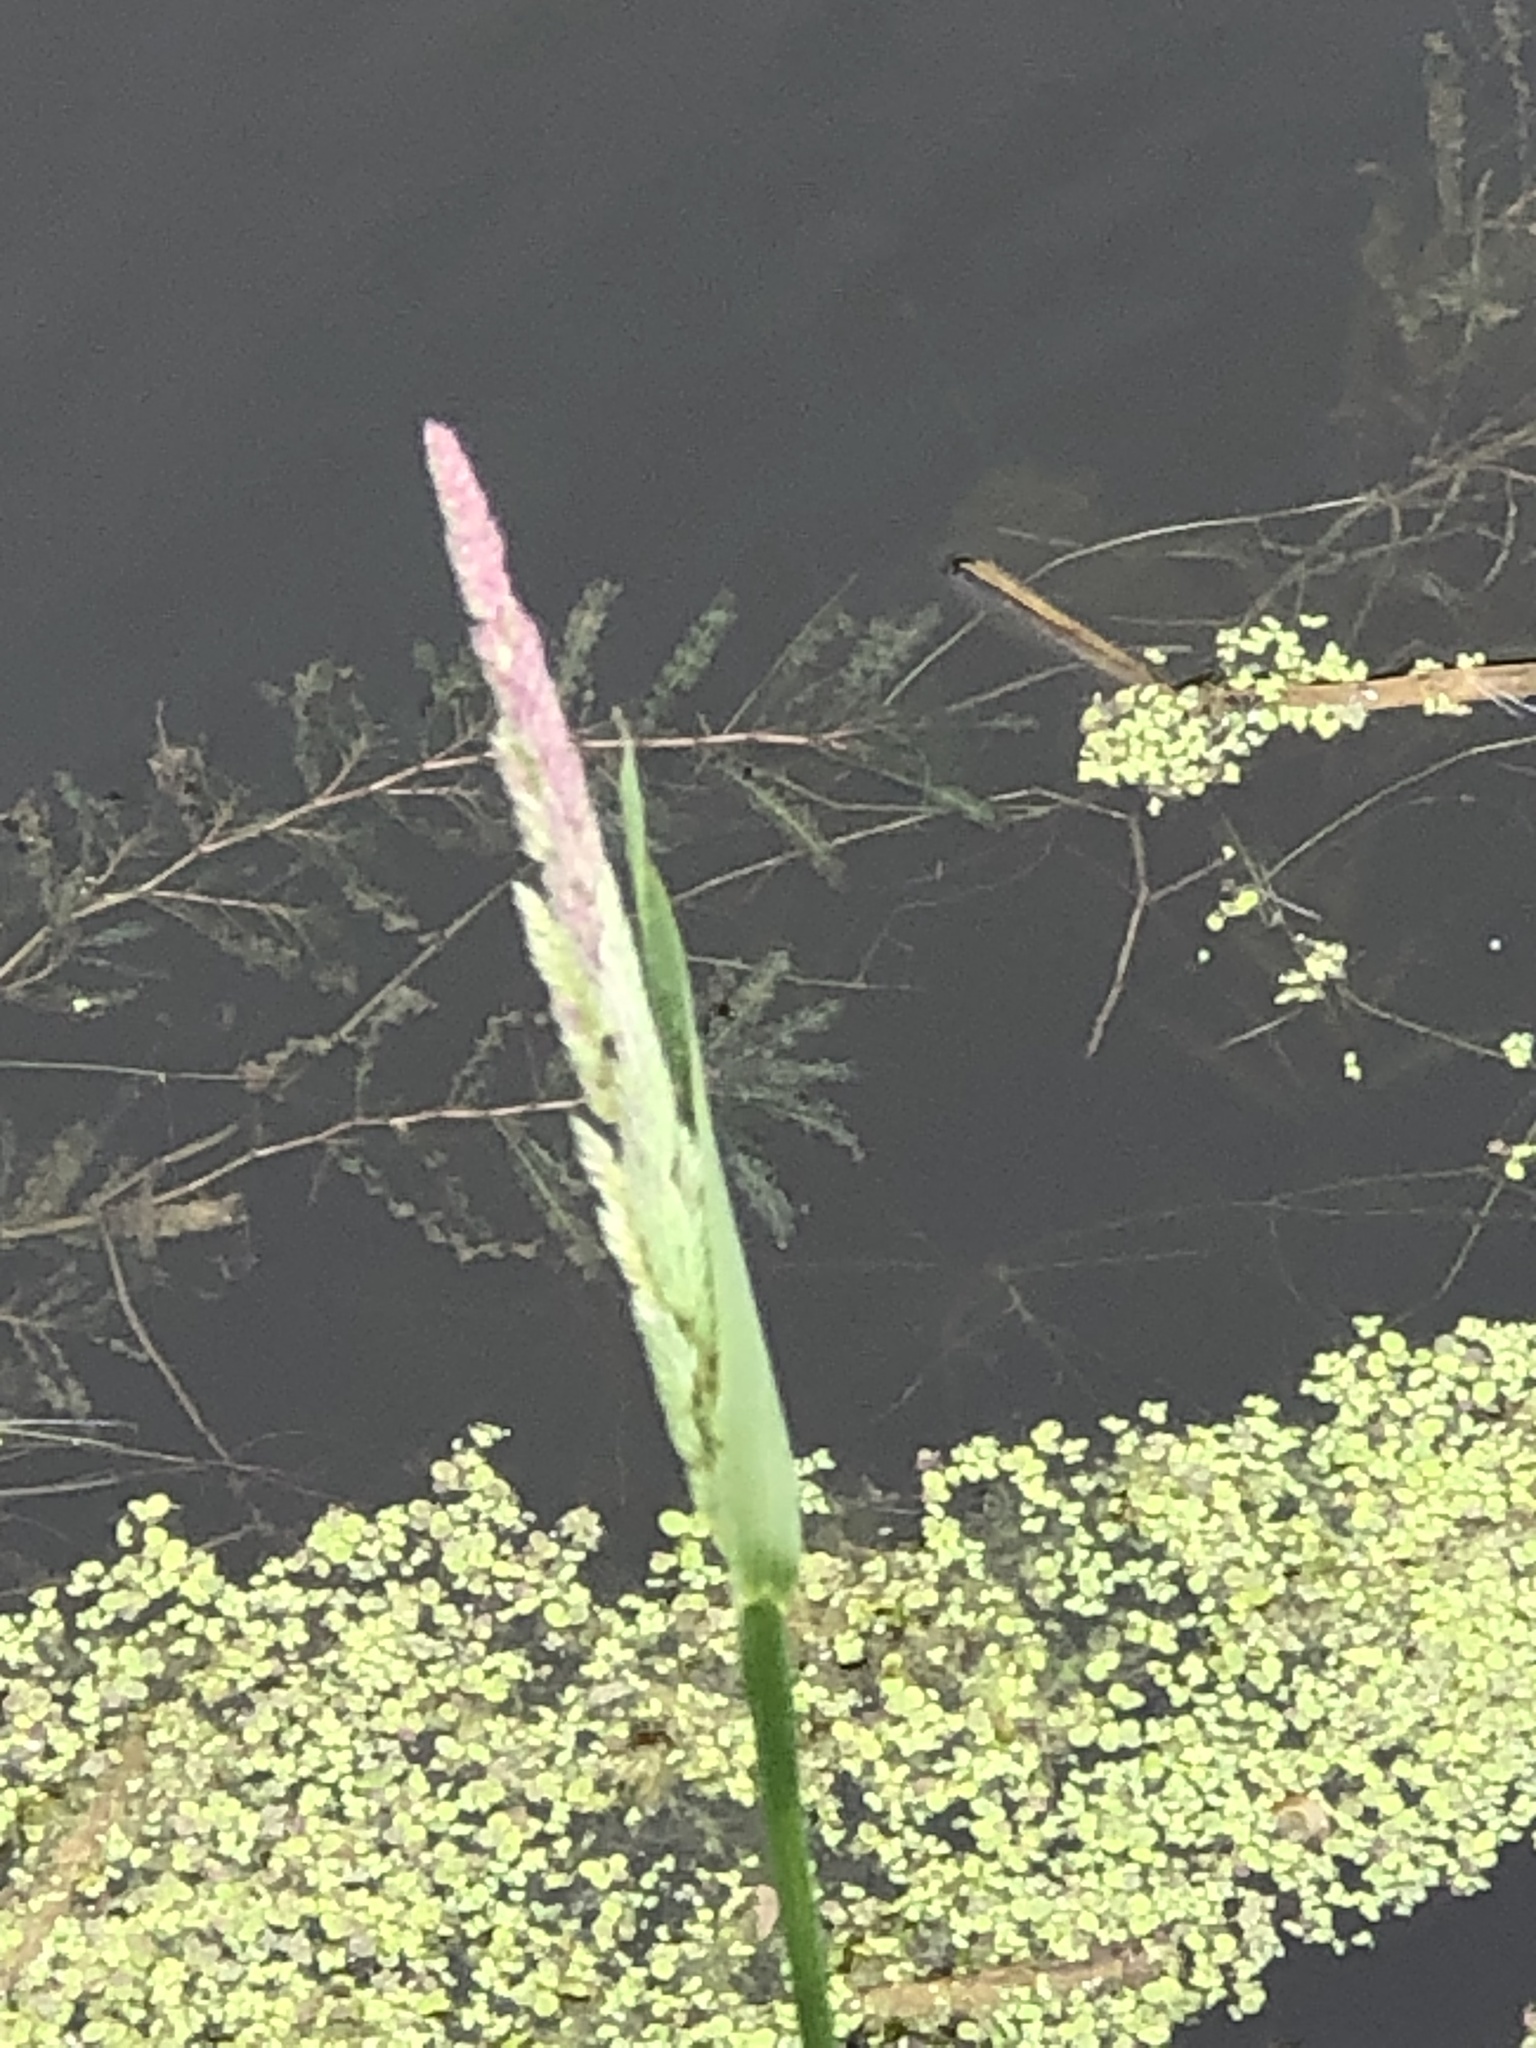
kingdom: Plantae
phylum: Tracheophyta
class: Liliopsida
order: Poales
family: Poaceae
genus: Phalaris
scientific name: Phalaris arundinacea
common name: Reed canary-grass
